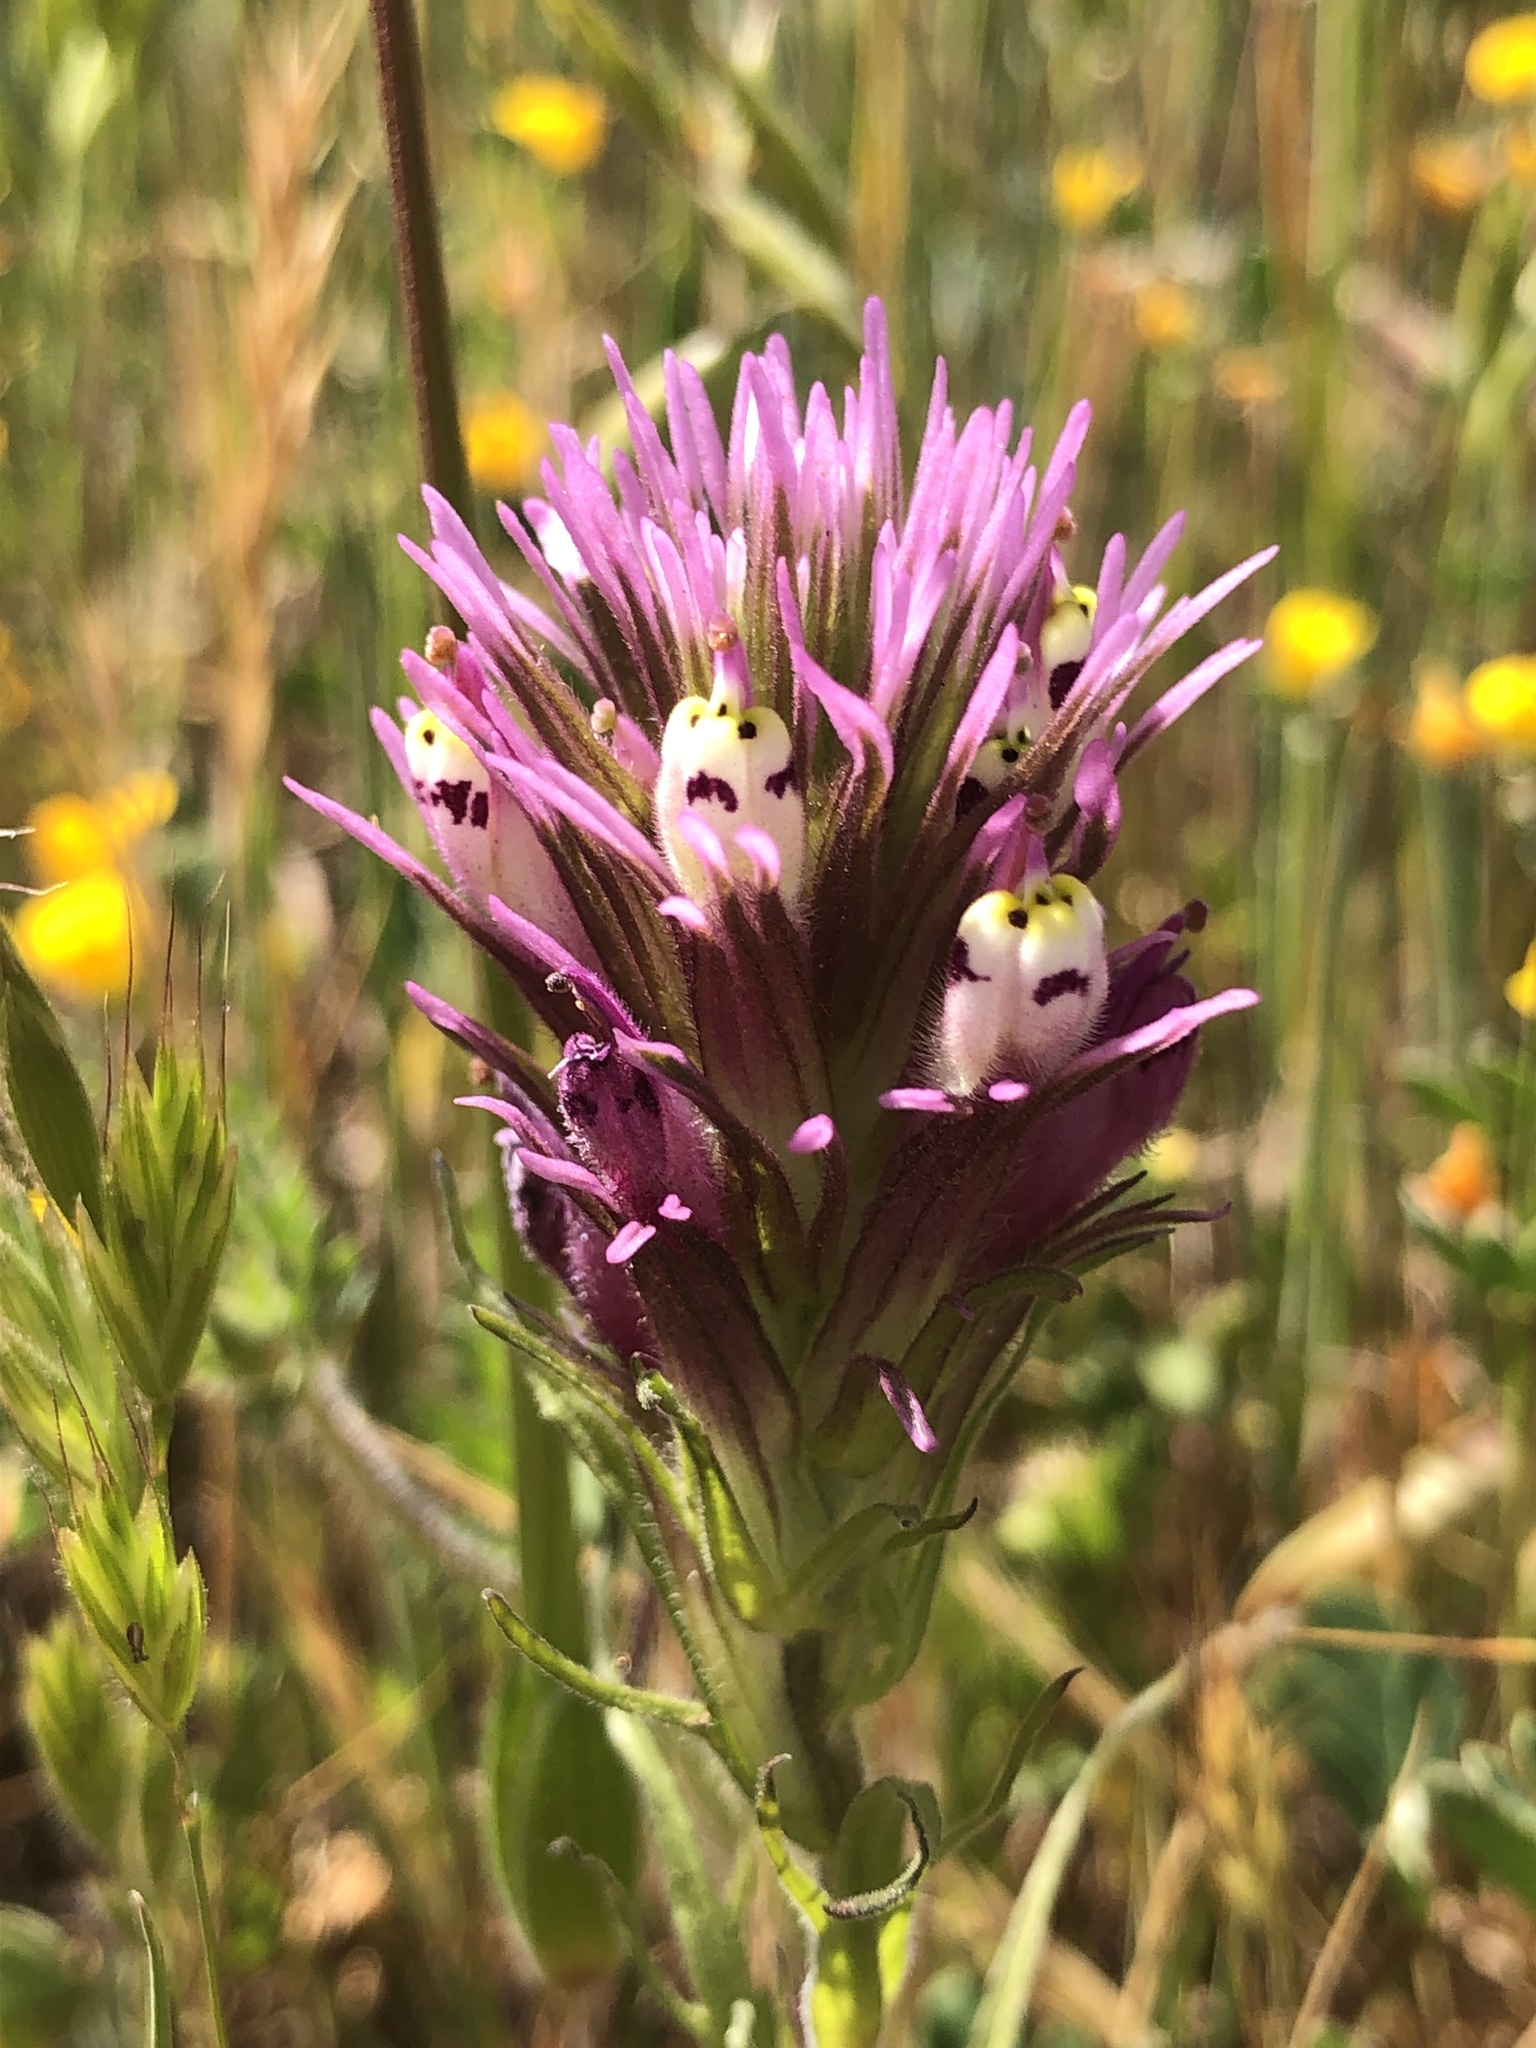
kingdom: Plantae
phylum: Tracheophyta
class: Magnoliopsida
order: Lamiales
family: Orobanchaceae
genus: Castilleja
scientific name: Castilleja densiflora
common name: Dense-flower indian paintbrush
